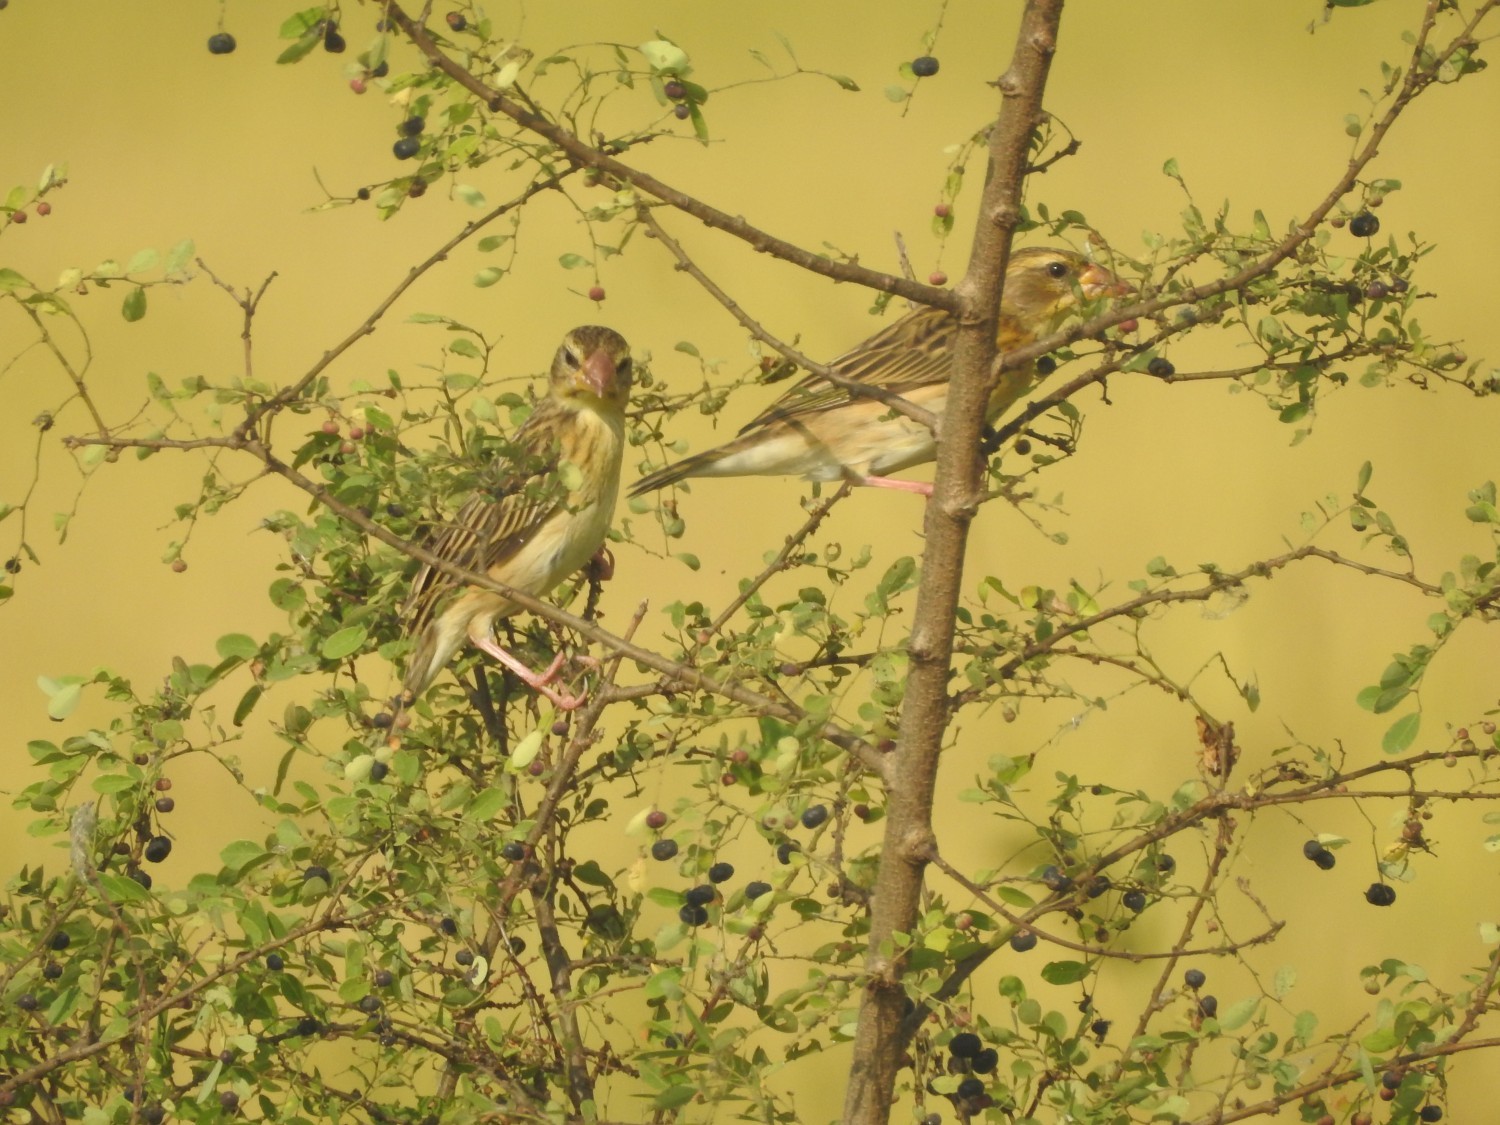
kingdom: Animalia
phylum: Chordata
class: Aves
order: Passeriformes
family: Ploceidae
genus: Ploceus
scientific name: Ploceus philippinus
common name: Baya weaver
